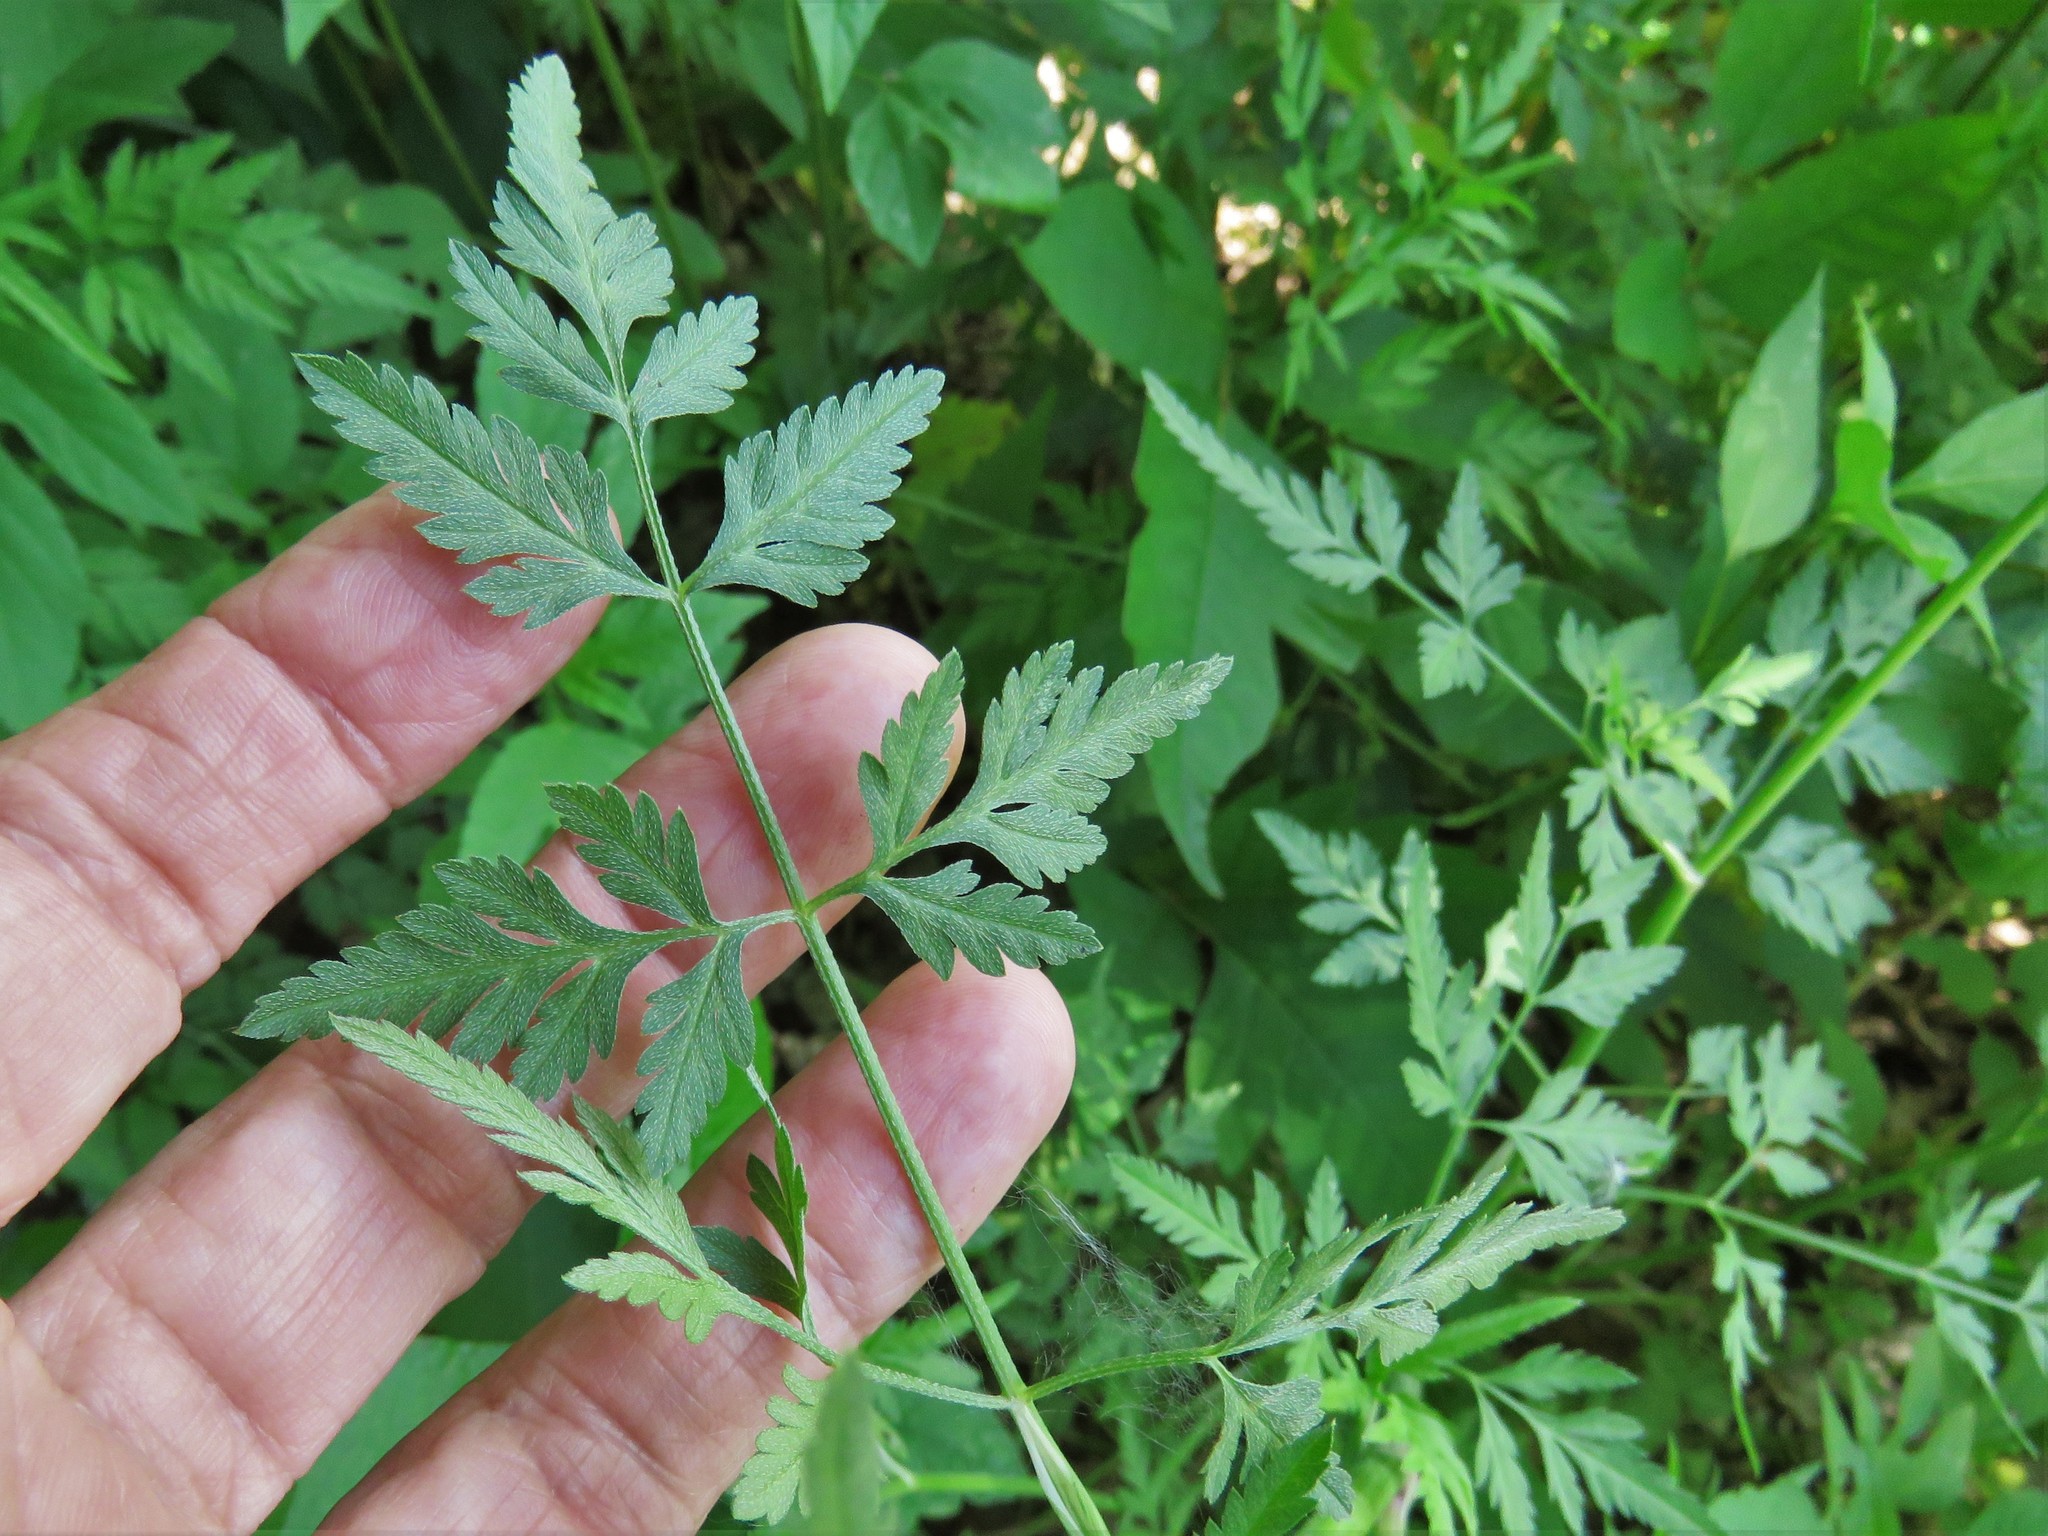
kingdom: Plantae
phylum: Tracheophyta
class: Magnoliopsida
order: Apiales
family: Apiaceae
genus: Torilis
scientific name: Torilis arvensis
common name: Spreading hedge-parsley
